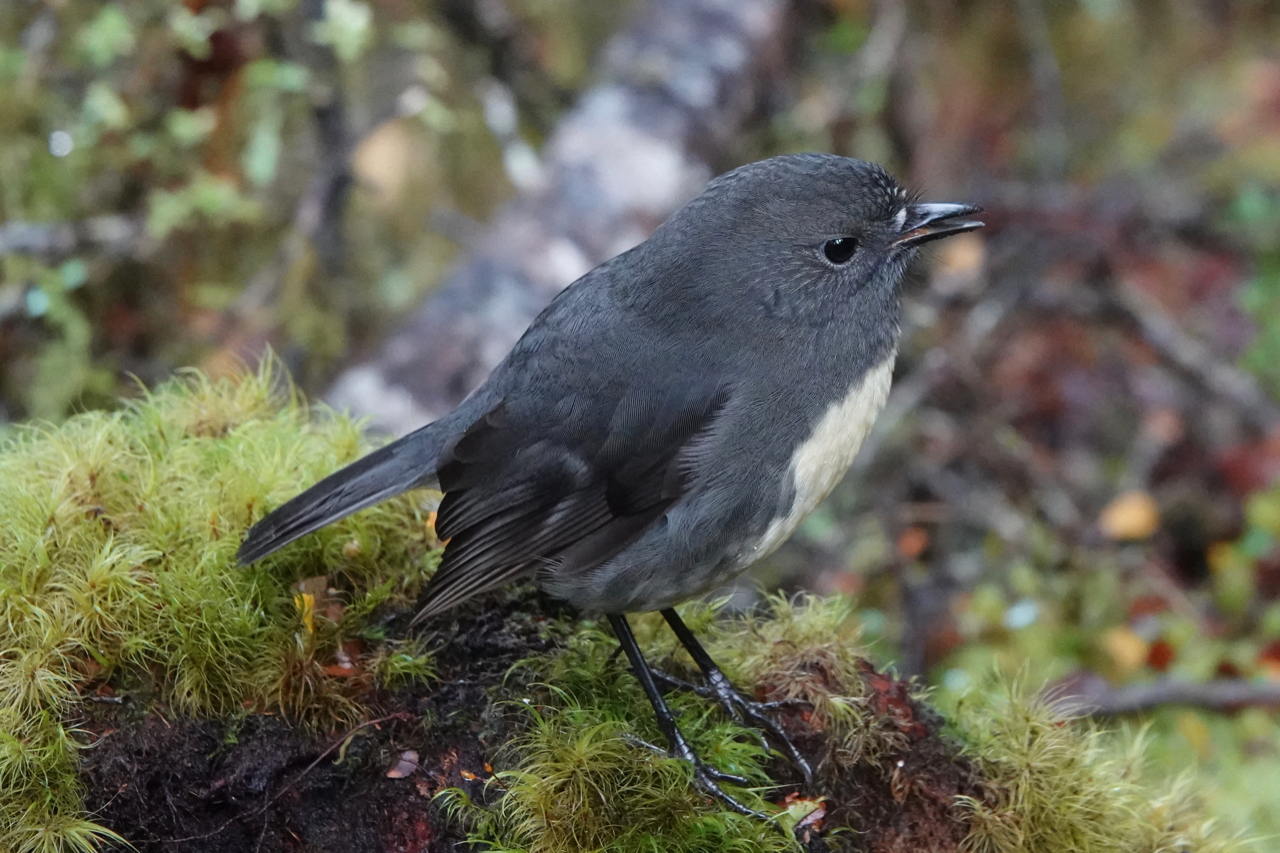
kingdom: Animalia
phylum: Chordata
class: Aves
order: Passeriformes
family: Petroicidae
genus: Petroica
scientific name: Petroica australis
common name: New zealand robin
